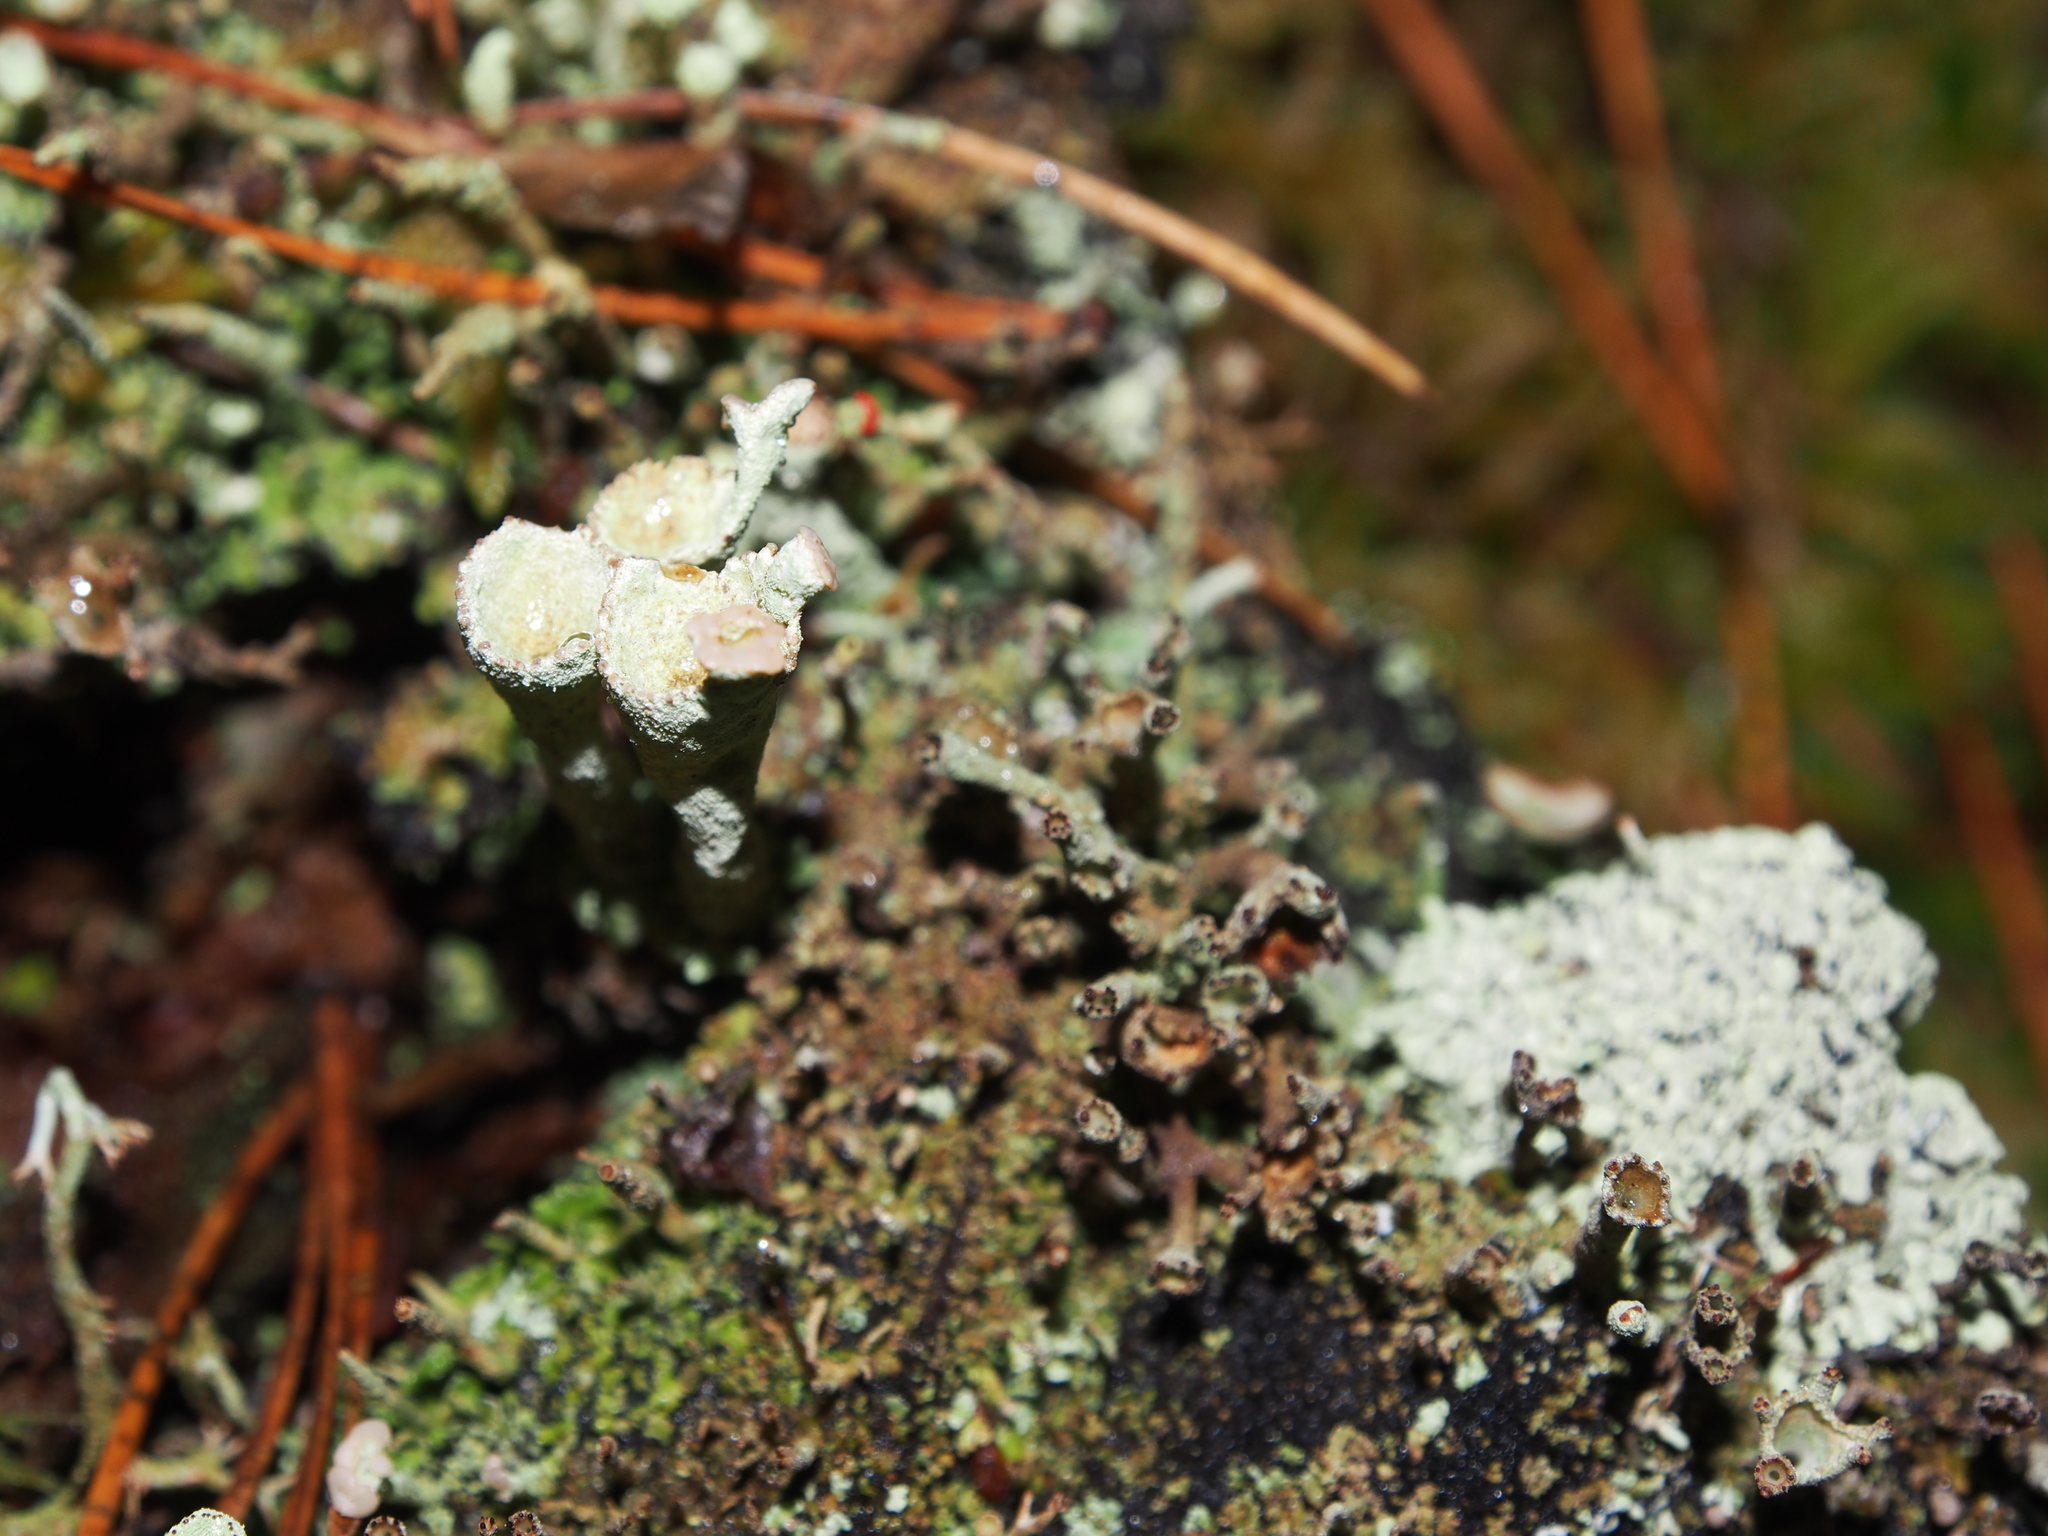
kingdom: Fungi
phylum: Ascomycota
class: Lecanoromycetes
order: Lecanorales
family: Cladoniaceae
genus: Cladonia
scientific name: Cladonia deformis
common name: Lesser sulphur-cup lichen
